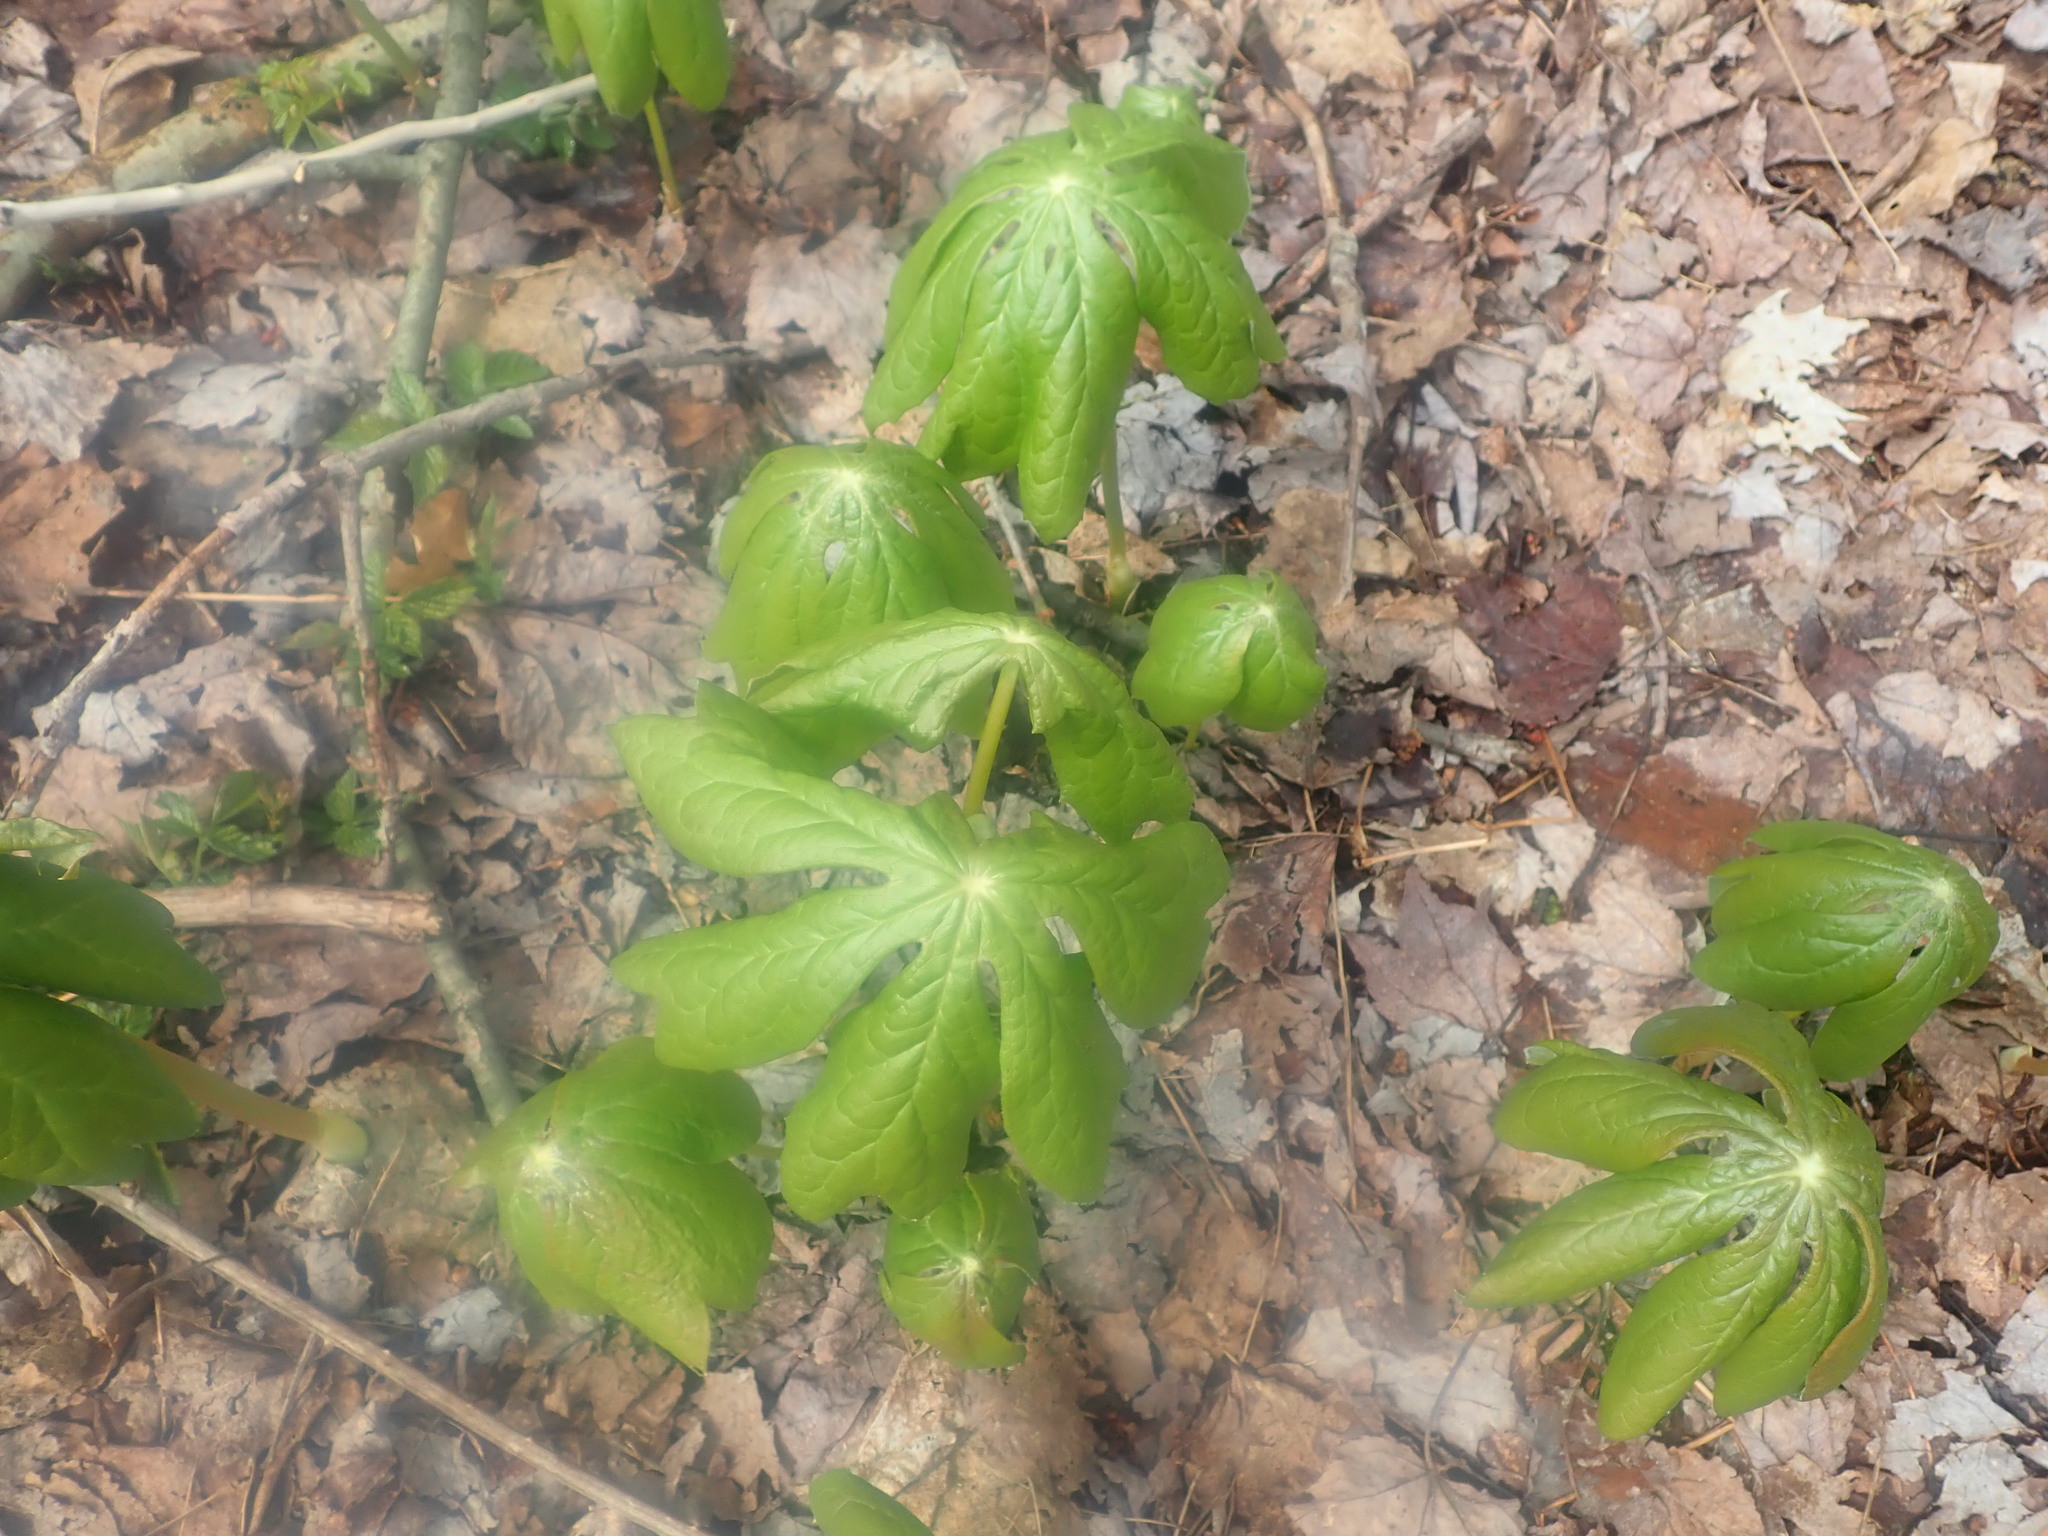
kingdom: Plantae
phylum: Tracheophyta
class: Magnoliopsida
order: Ranunculales
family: Berberidaceae
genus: Podophyllum
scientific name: Podophyllum peltatum
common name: Wild mandrake
